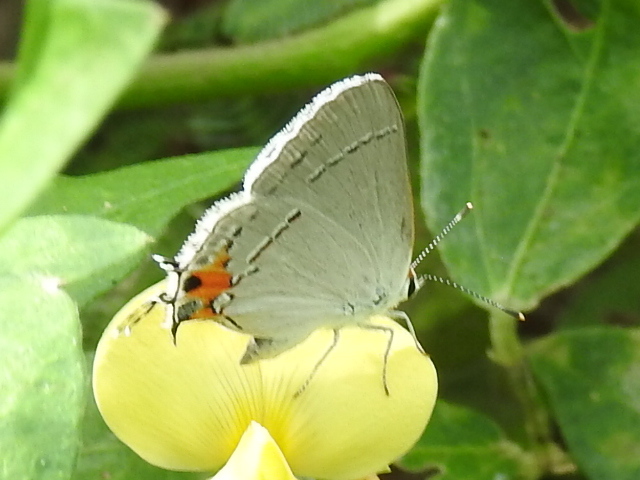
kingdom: Animalia
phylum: Arthropoda
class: Insecta
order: Lepidoptera
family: Lycaenidae
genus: Strymon
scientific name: Strymon melinus
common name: Gray hairstreak
